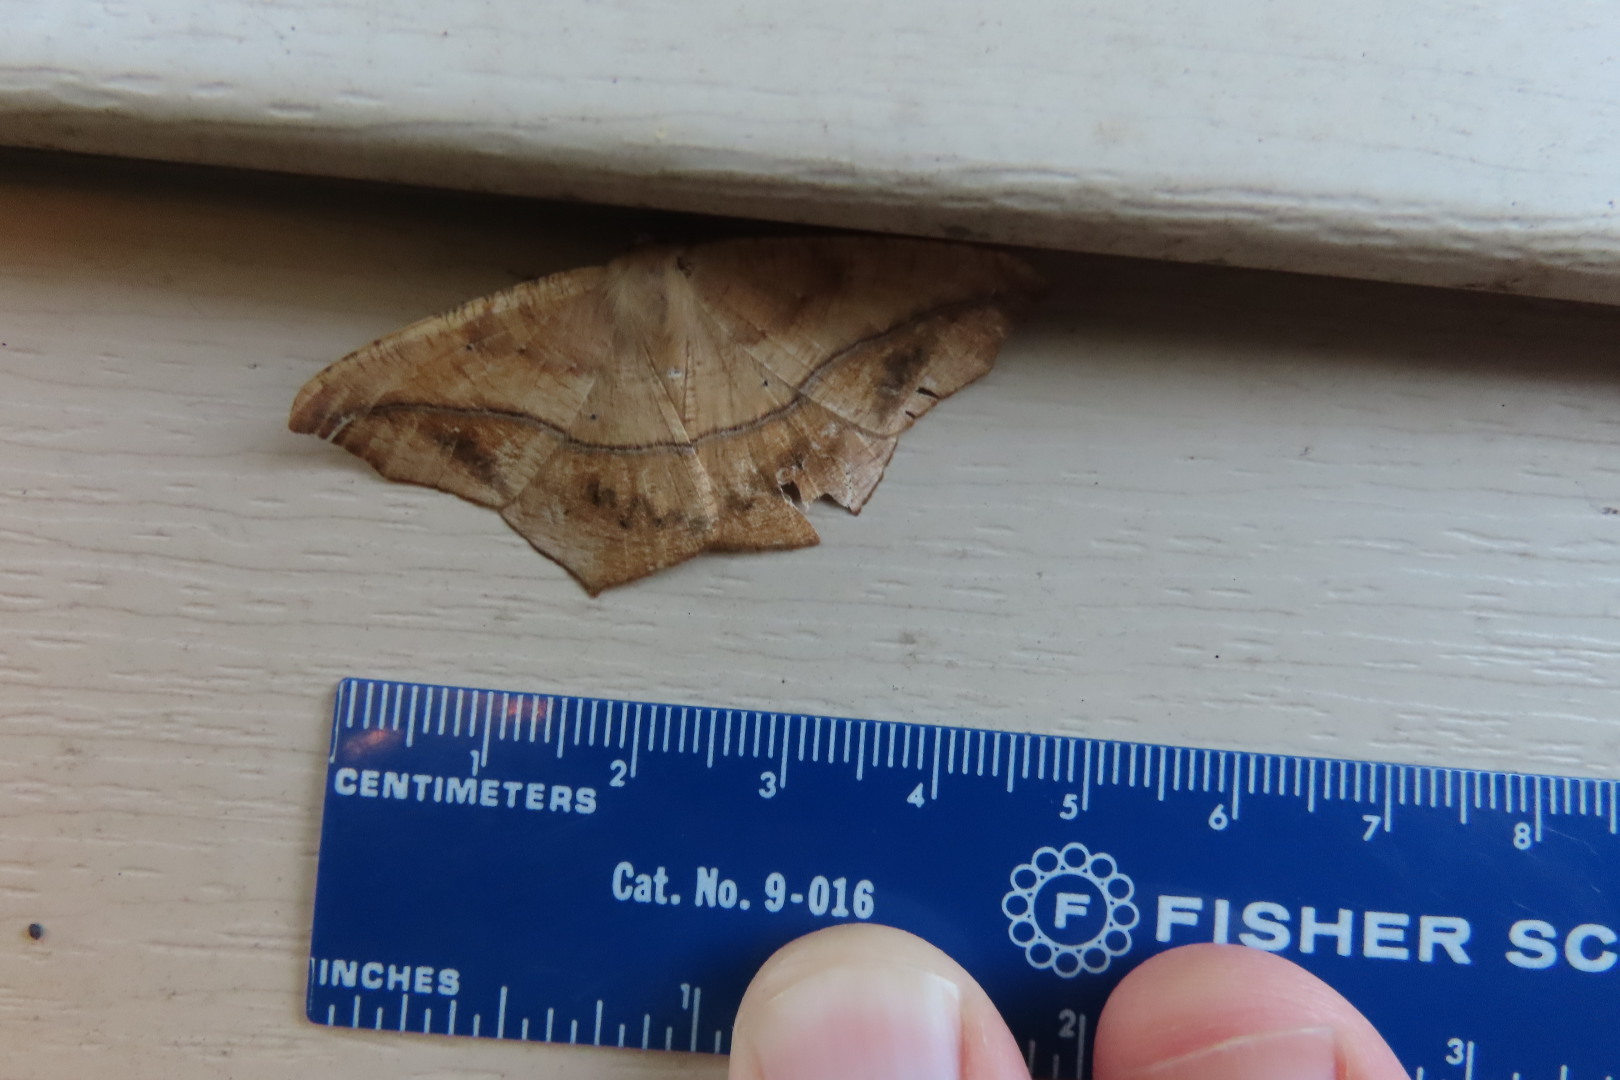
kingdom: Animalia
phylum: Arthropoda
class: Insecta
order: Lepidoptera
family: Geometridae
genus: Prochoerodes
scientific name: Prochoerodes lineola
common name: Large maple spanworm
